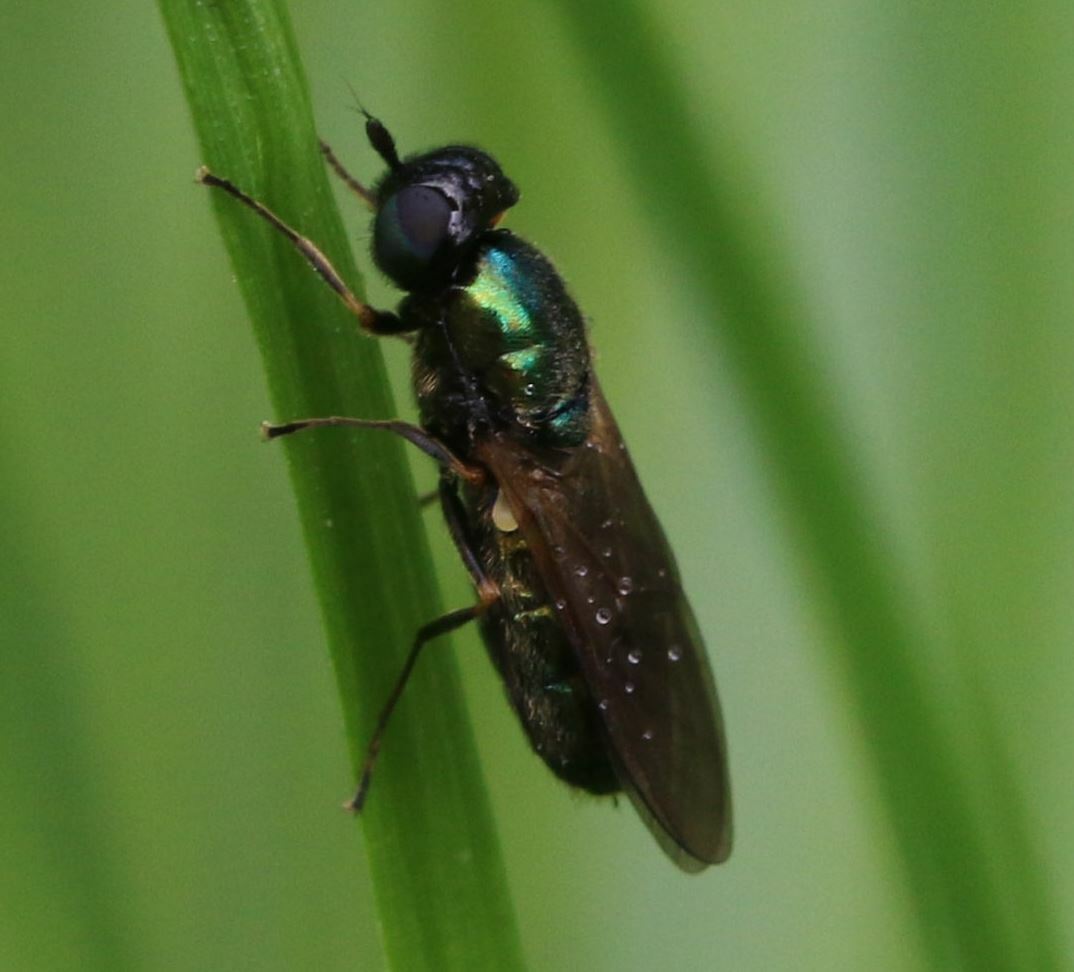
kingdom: Animalia
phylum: Arthropoda
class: Insecta
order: Diptera
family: Stratiomyidae
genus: Chloromyia
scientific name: Chloromyia formosa
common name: Soldier fly
